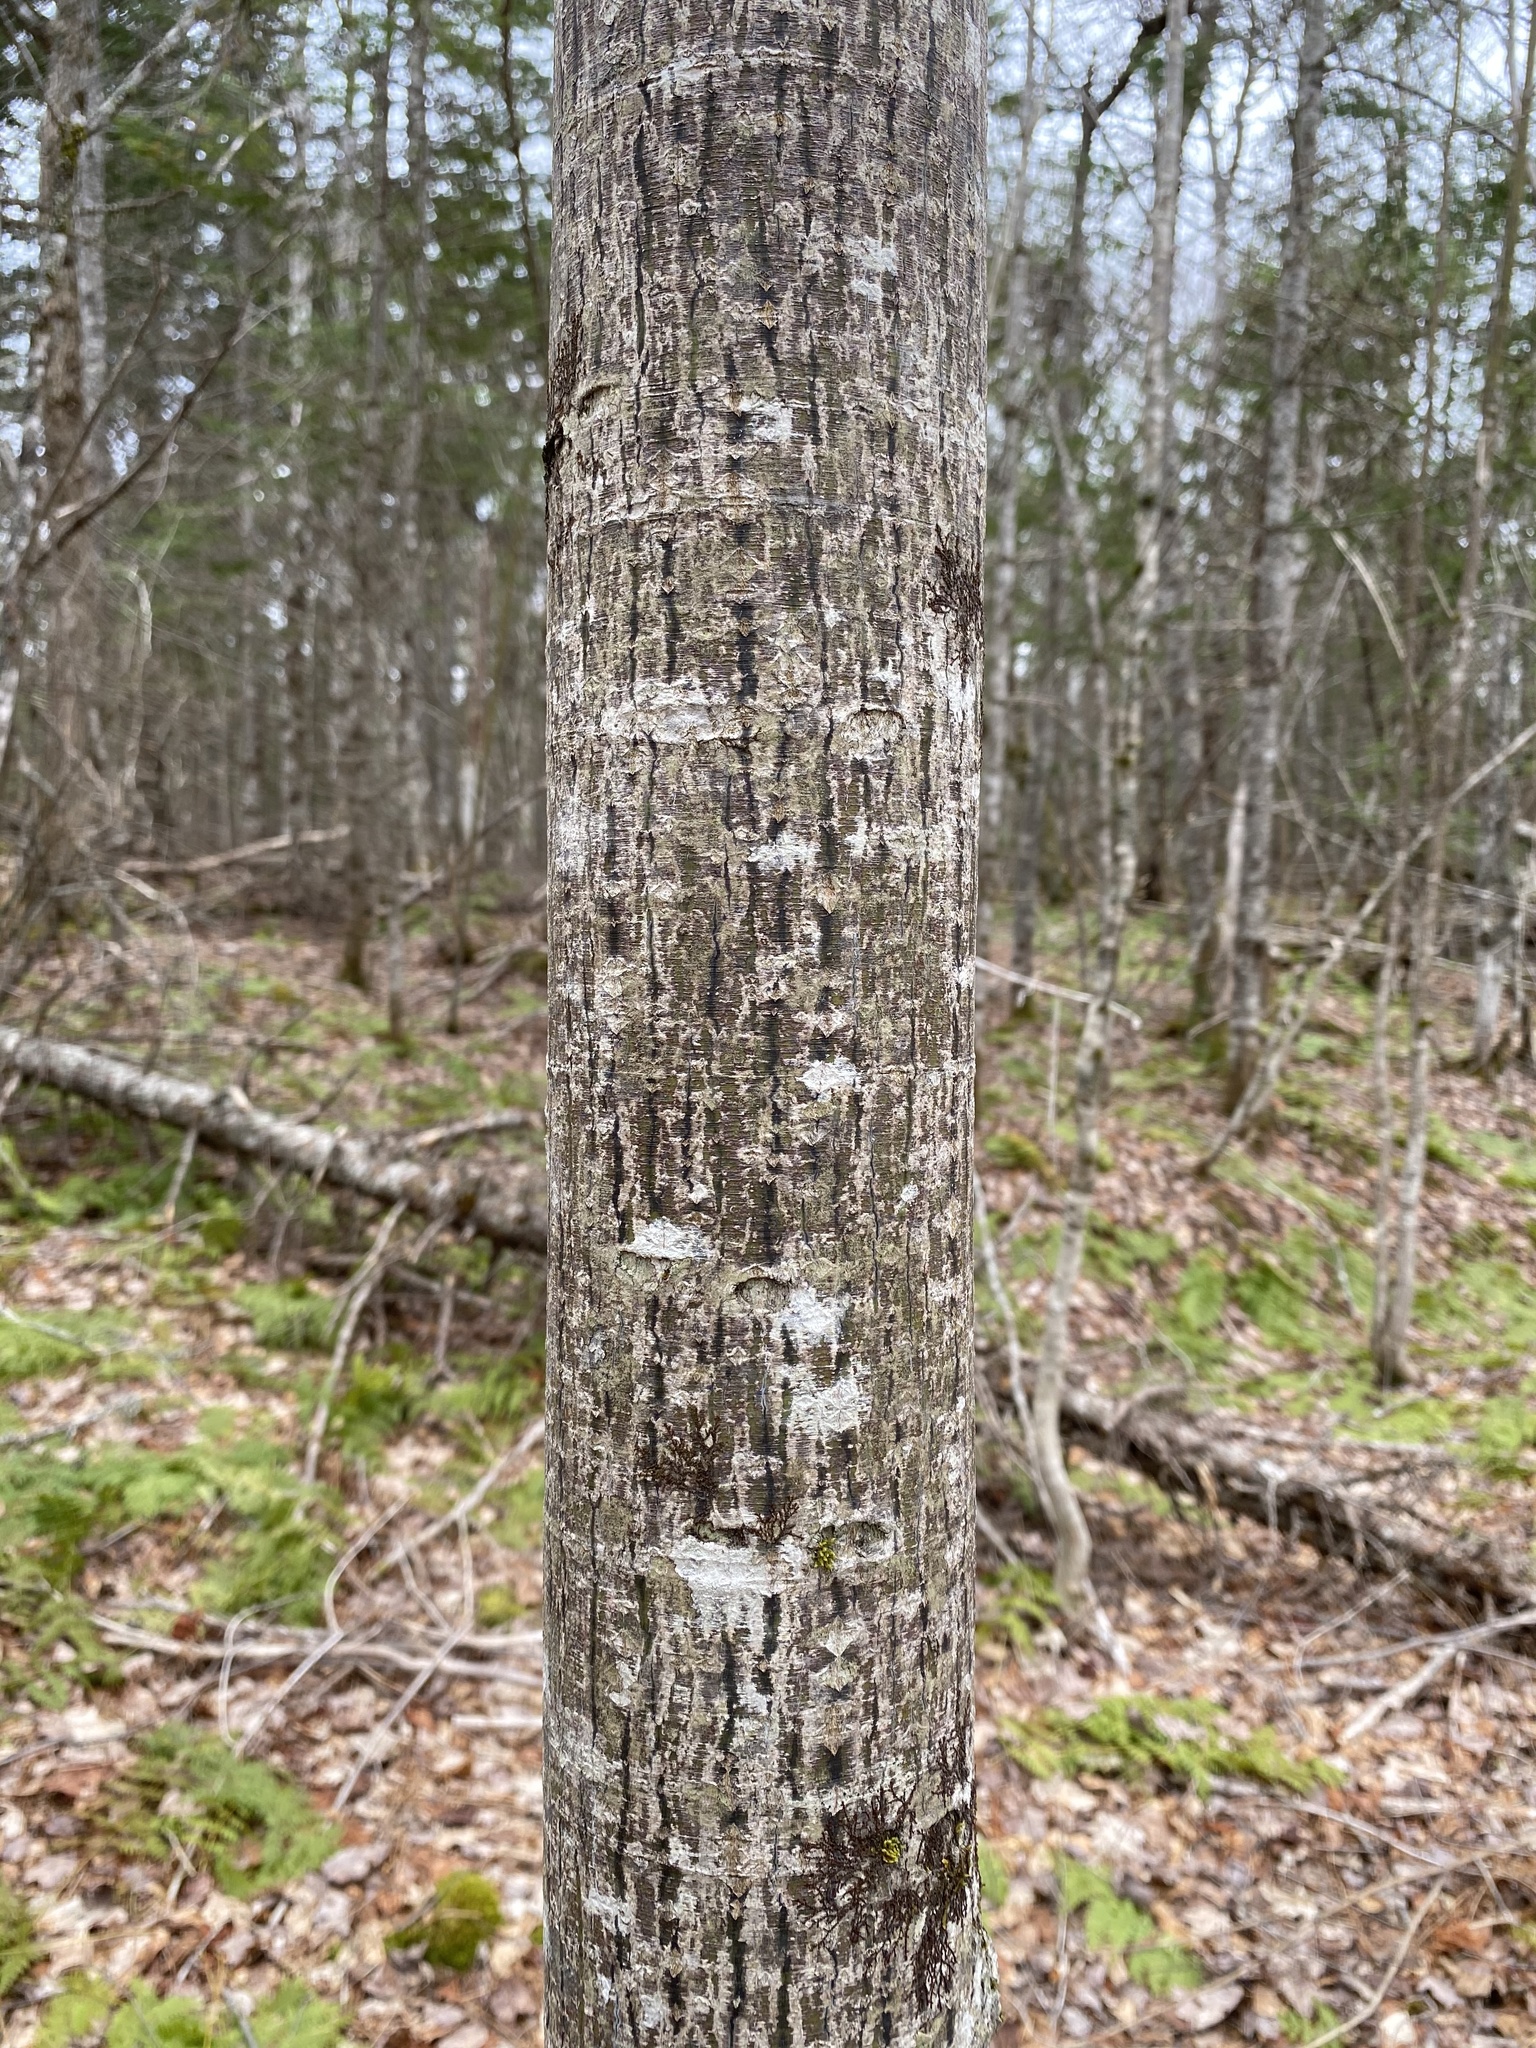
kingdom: Plantae
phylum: Tracheophyta
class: Magnoliopsida
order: Sapindales
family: Sapindaceae
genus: Acer
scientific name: Acer pensylvanicum
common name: Moosewood
